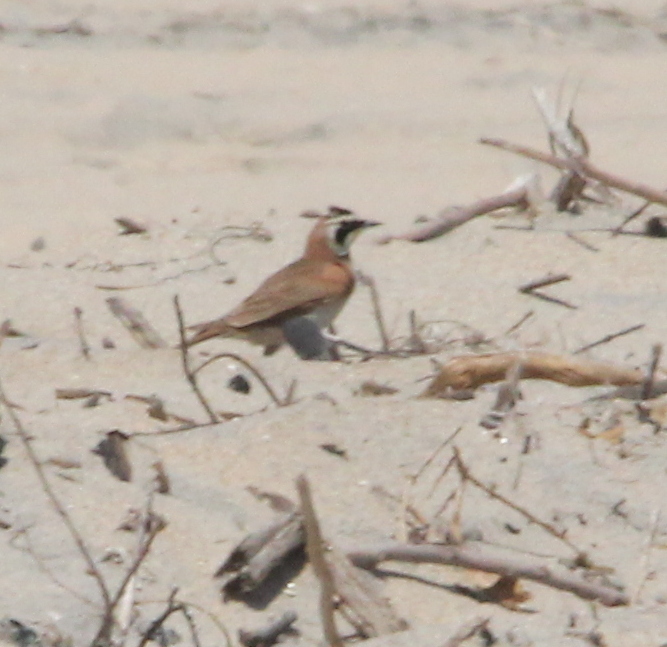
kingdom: Animalia
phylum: Chordata
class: Aves
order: Passeriformes
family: Alaudidae
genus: Eremophila
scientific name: Eremophila alpestris
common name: Horned lark
